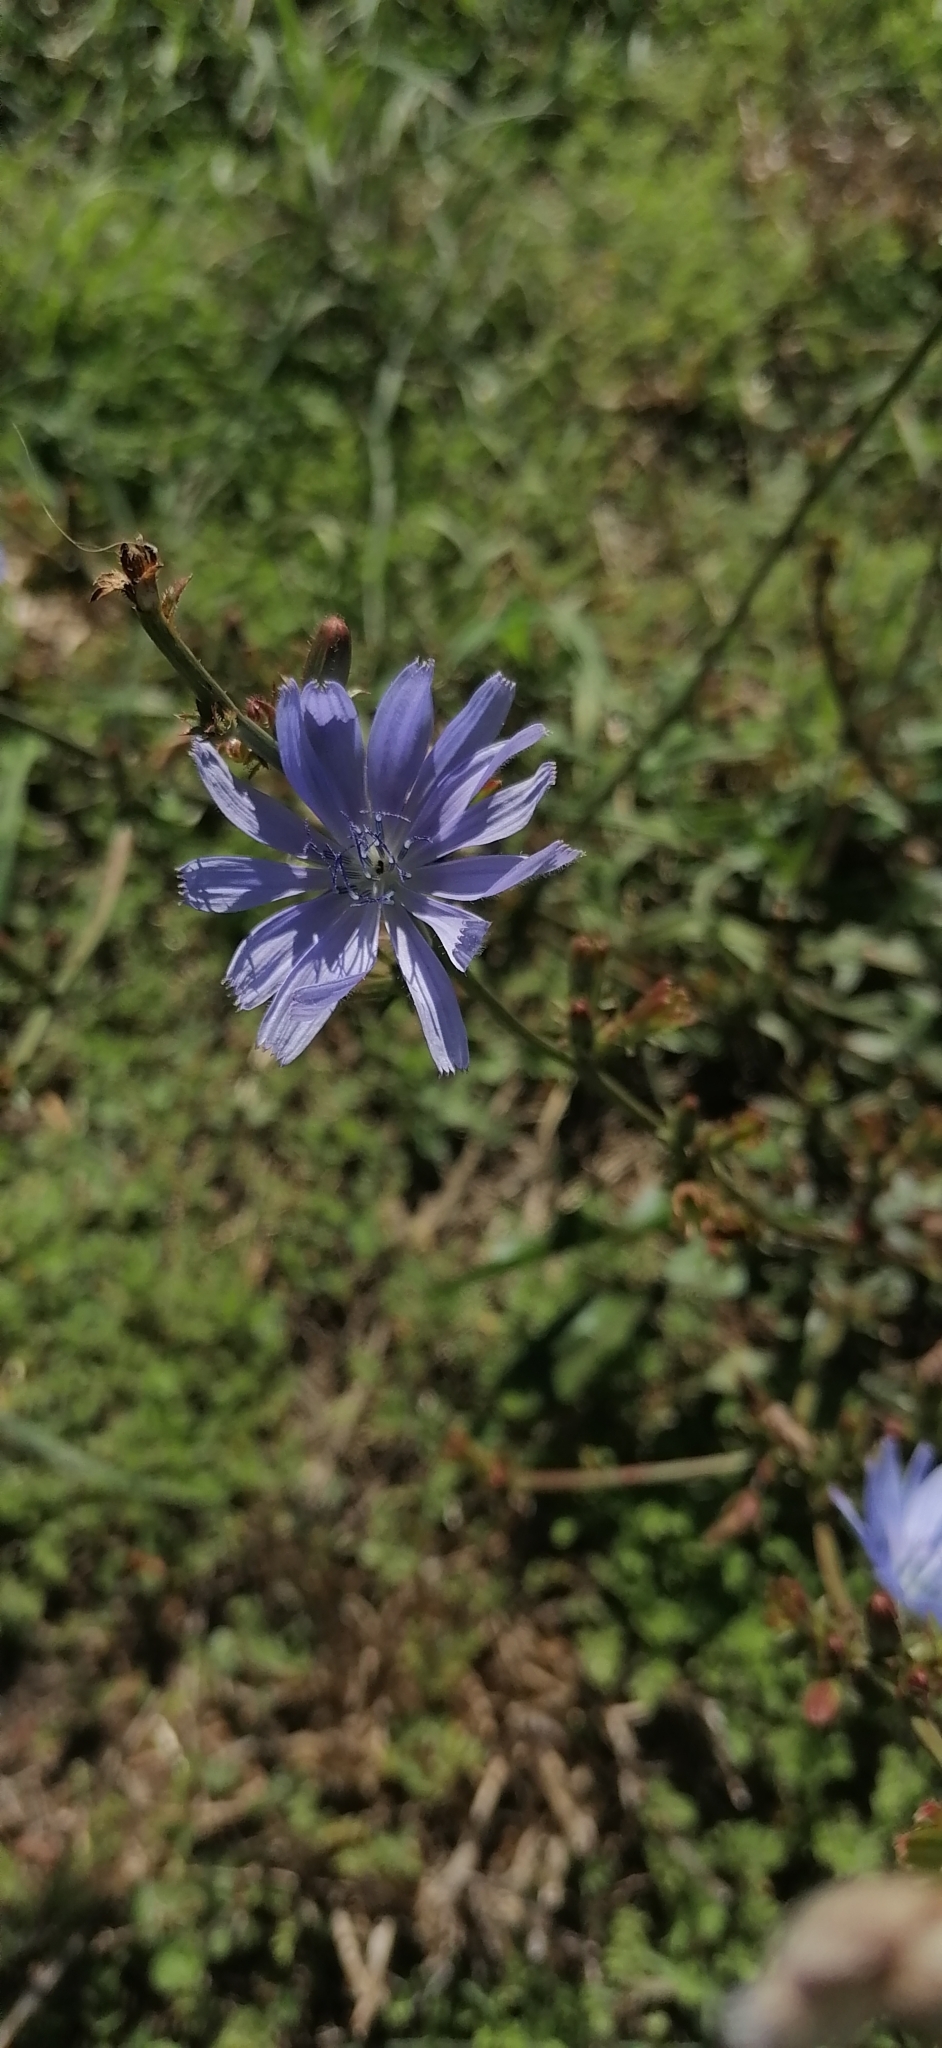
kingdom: Plantae
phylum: Tracheophyta
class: Magnoliopsida
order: Asterales
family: Asteraceae
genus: Cichorium
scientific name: Cichorium intybus
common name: Chicory
